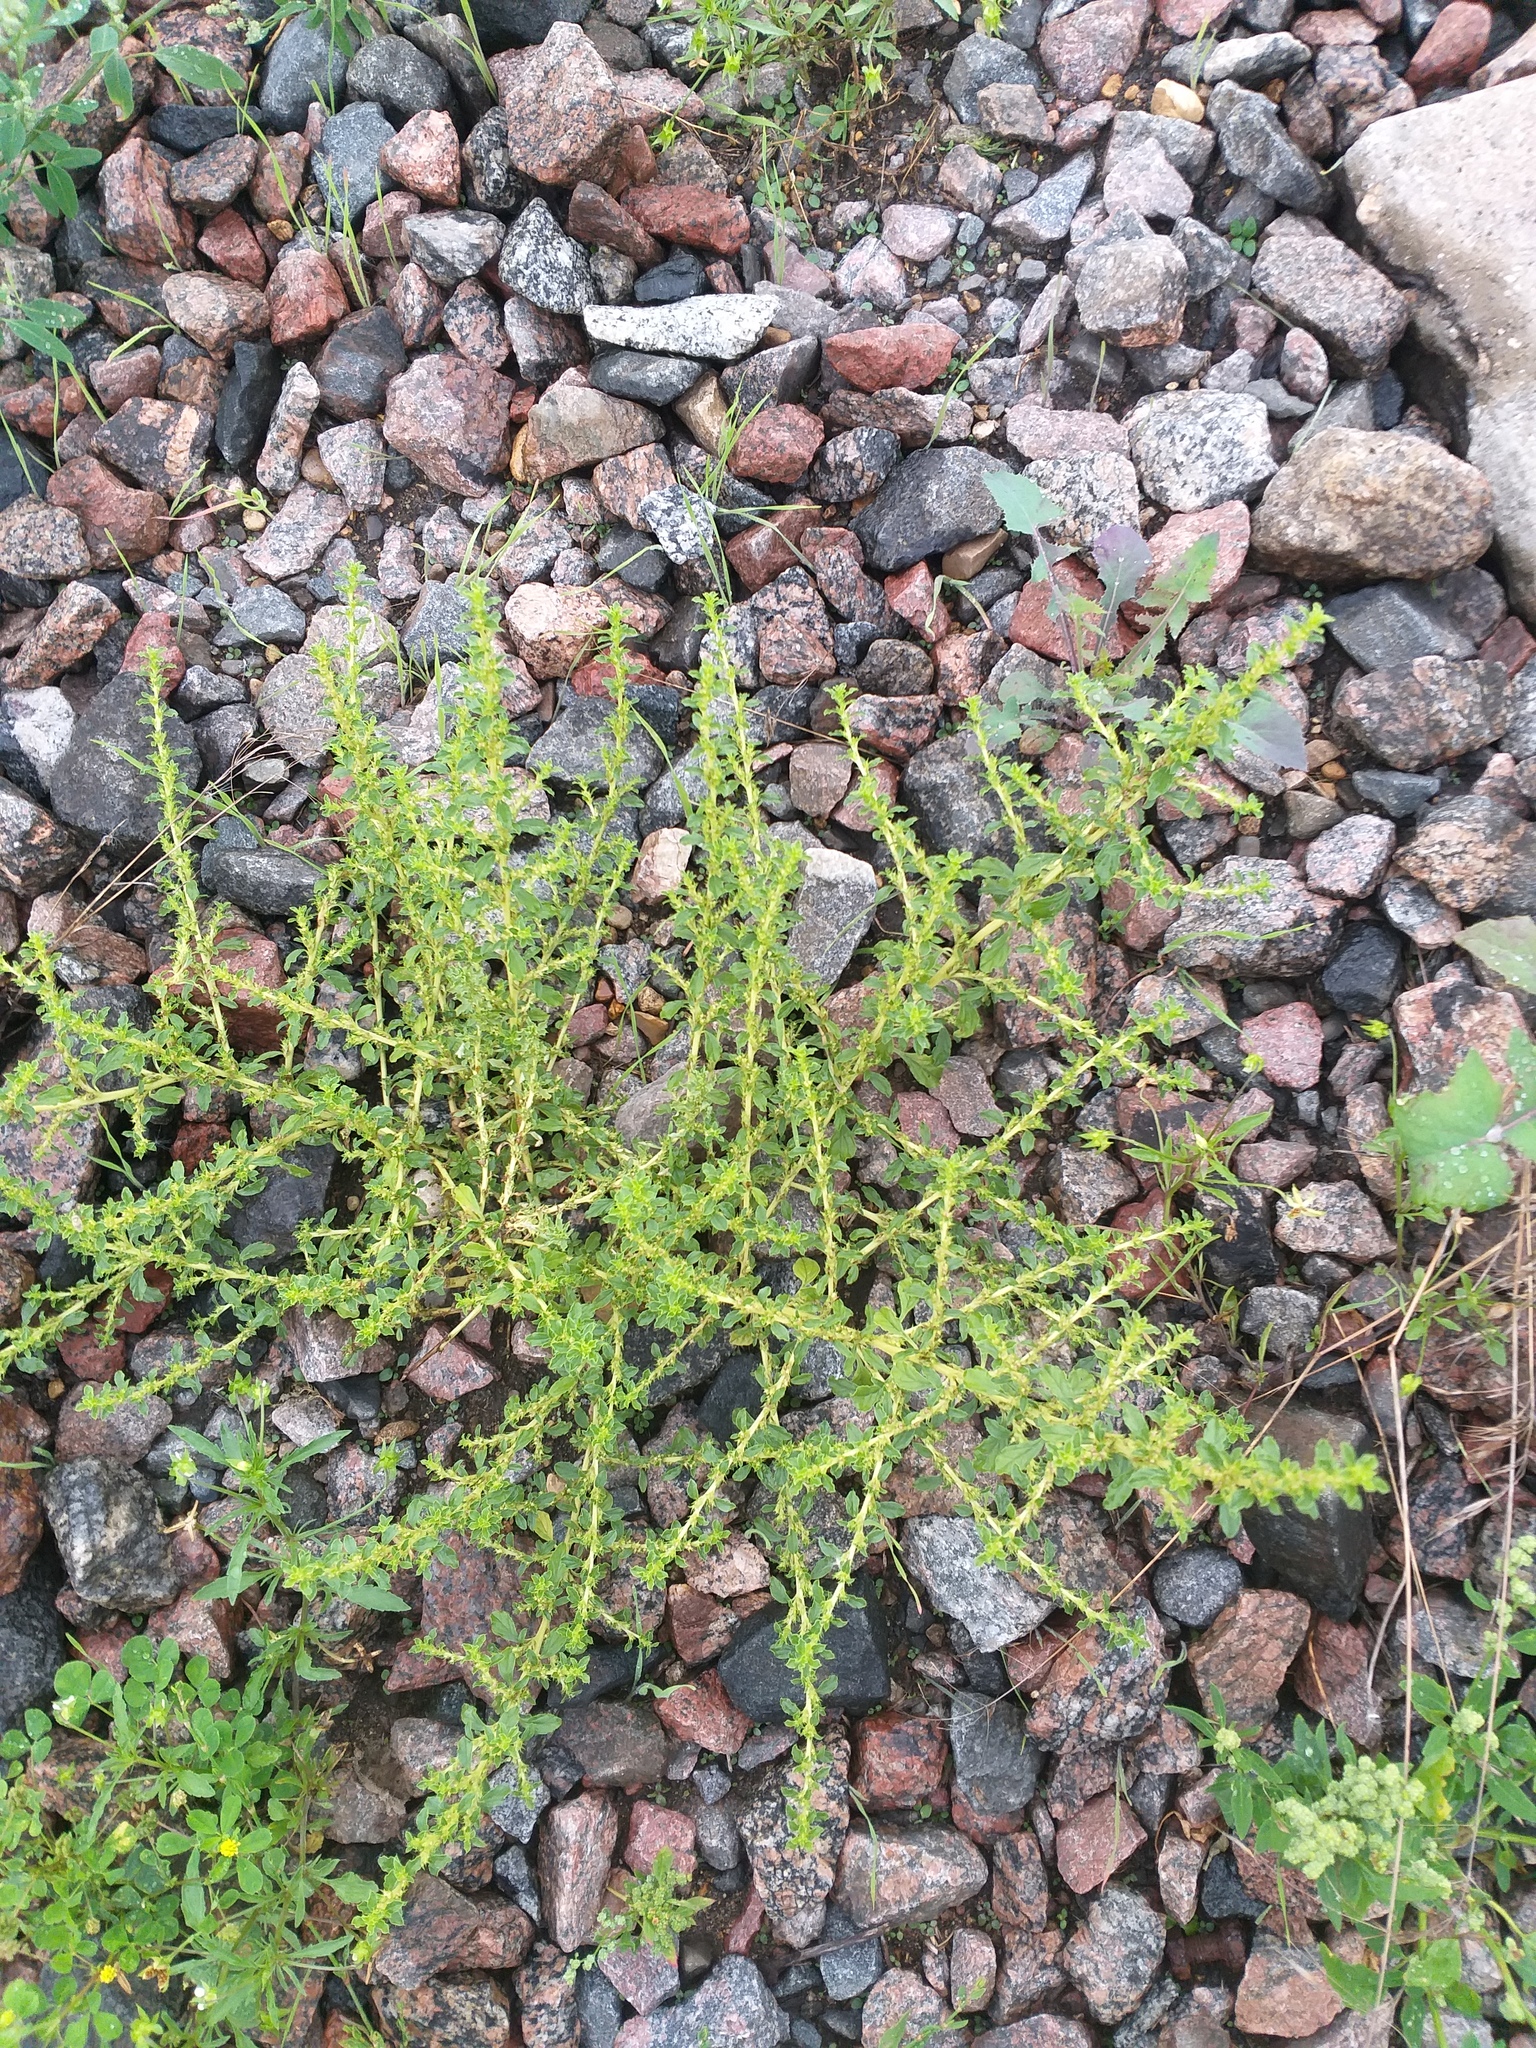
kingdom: Plantae
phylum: Tracheophyta
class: Magnoliopsida
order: Caryophyllales
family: Amaranthaceae
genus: Amaranthus
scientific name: Amaranthus albus
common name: White pigweed
